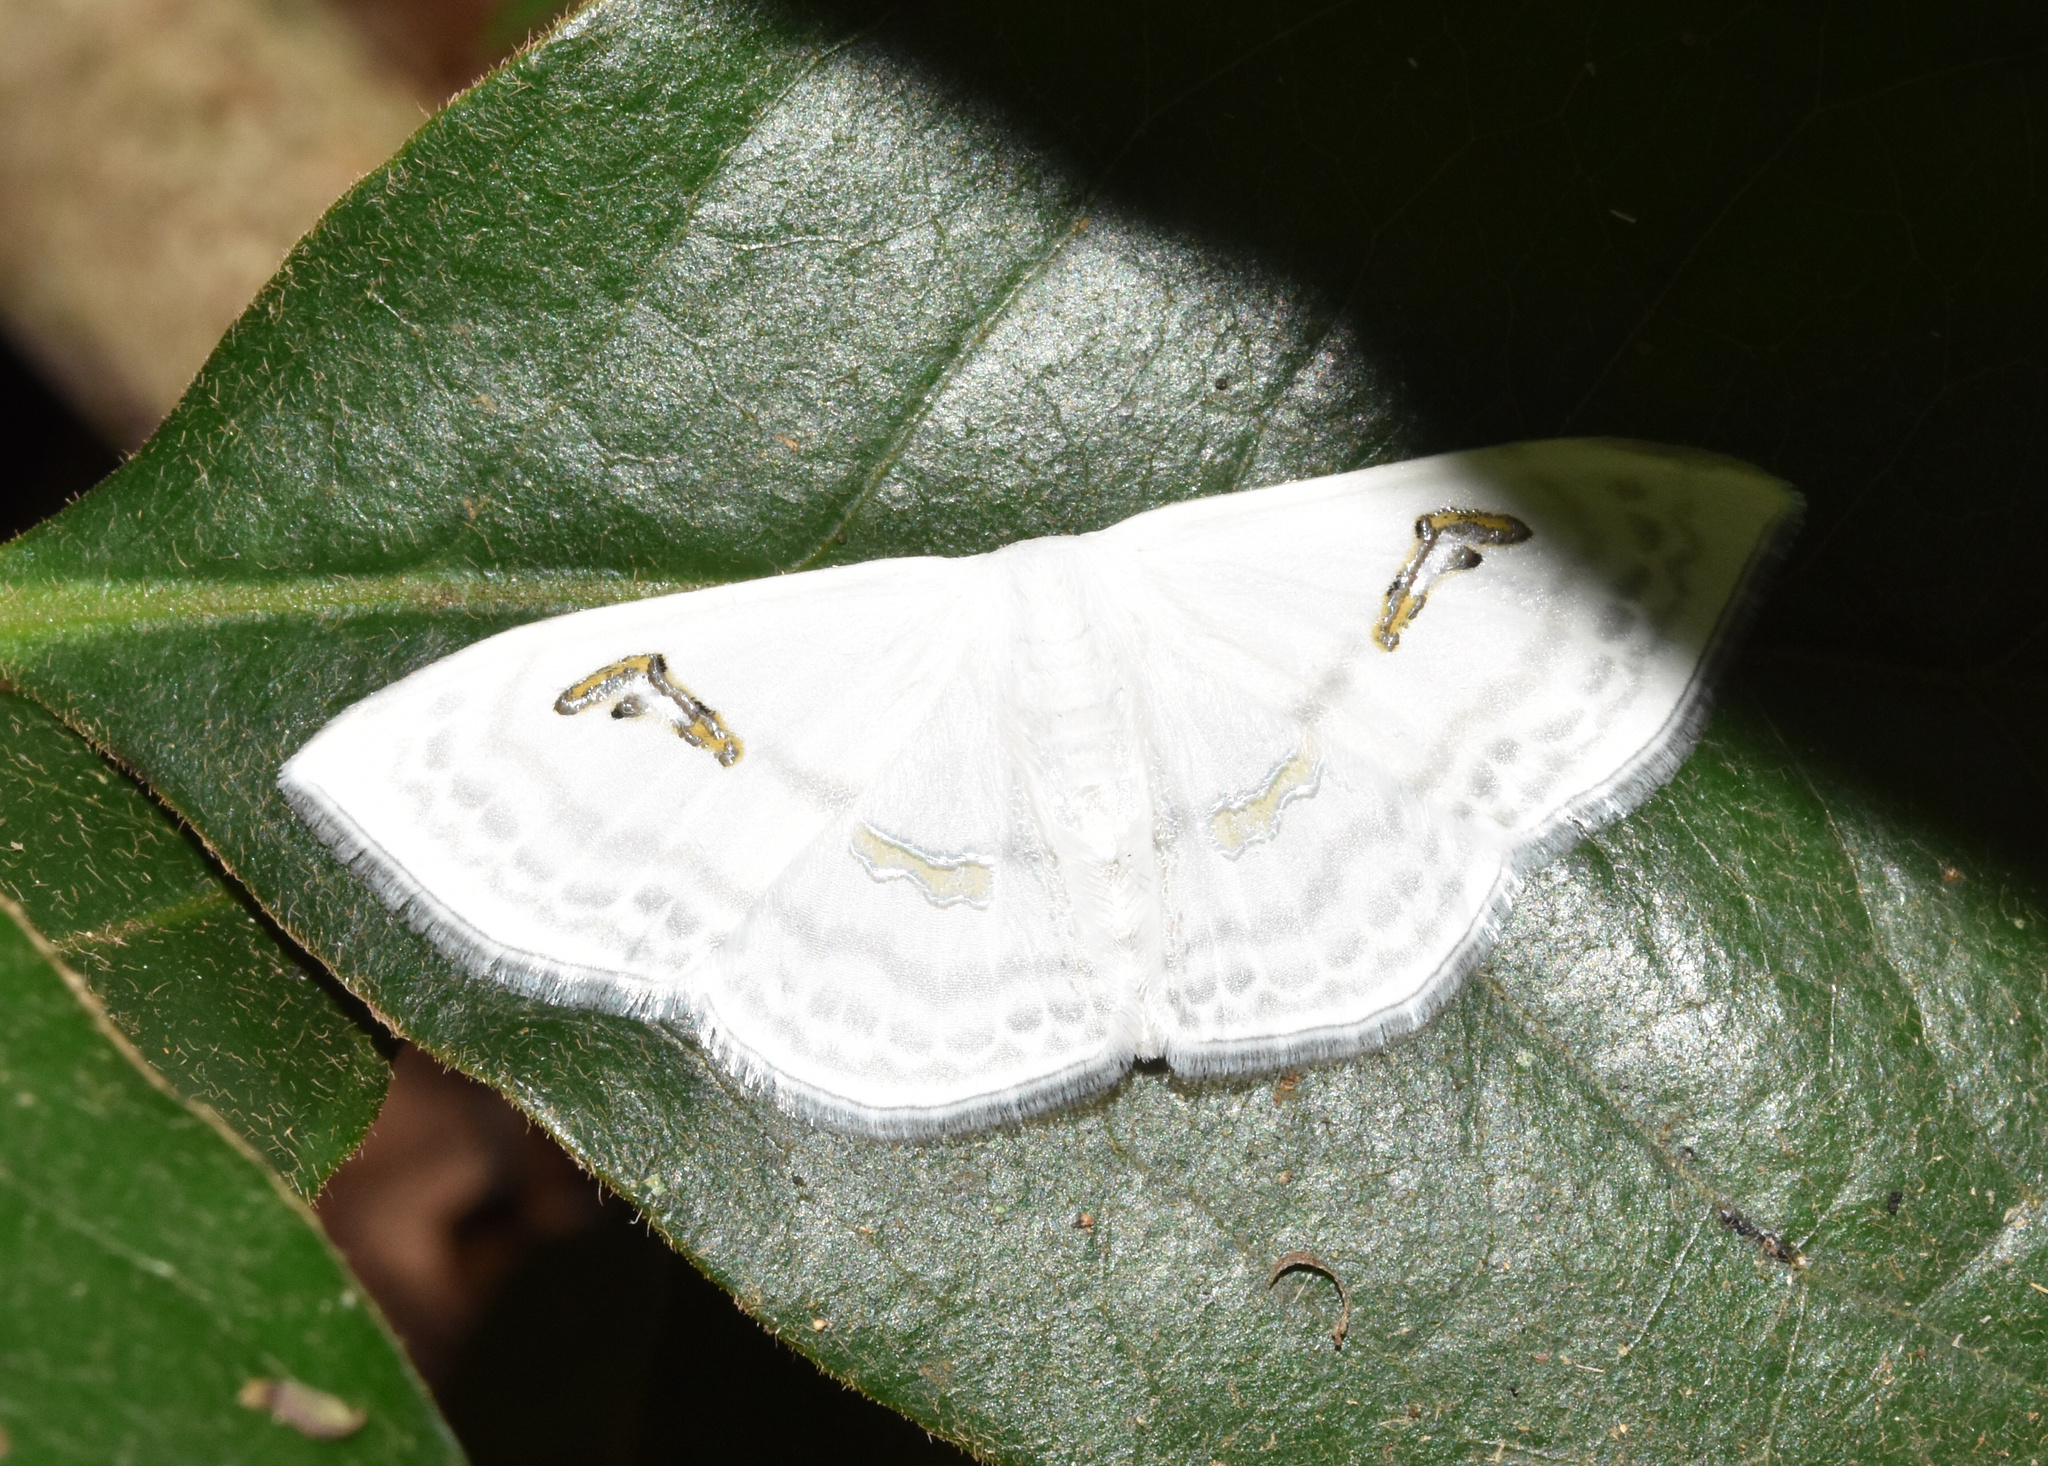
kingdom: Animalia
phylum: Arthropoda
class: Insecta
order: Lepidoptera
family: Geometridae
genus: Problepsis
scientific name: Problepsis digammata
